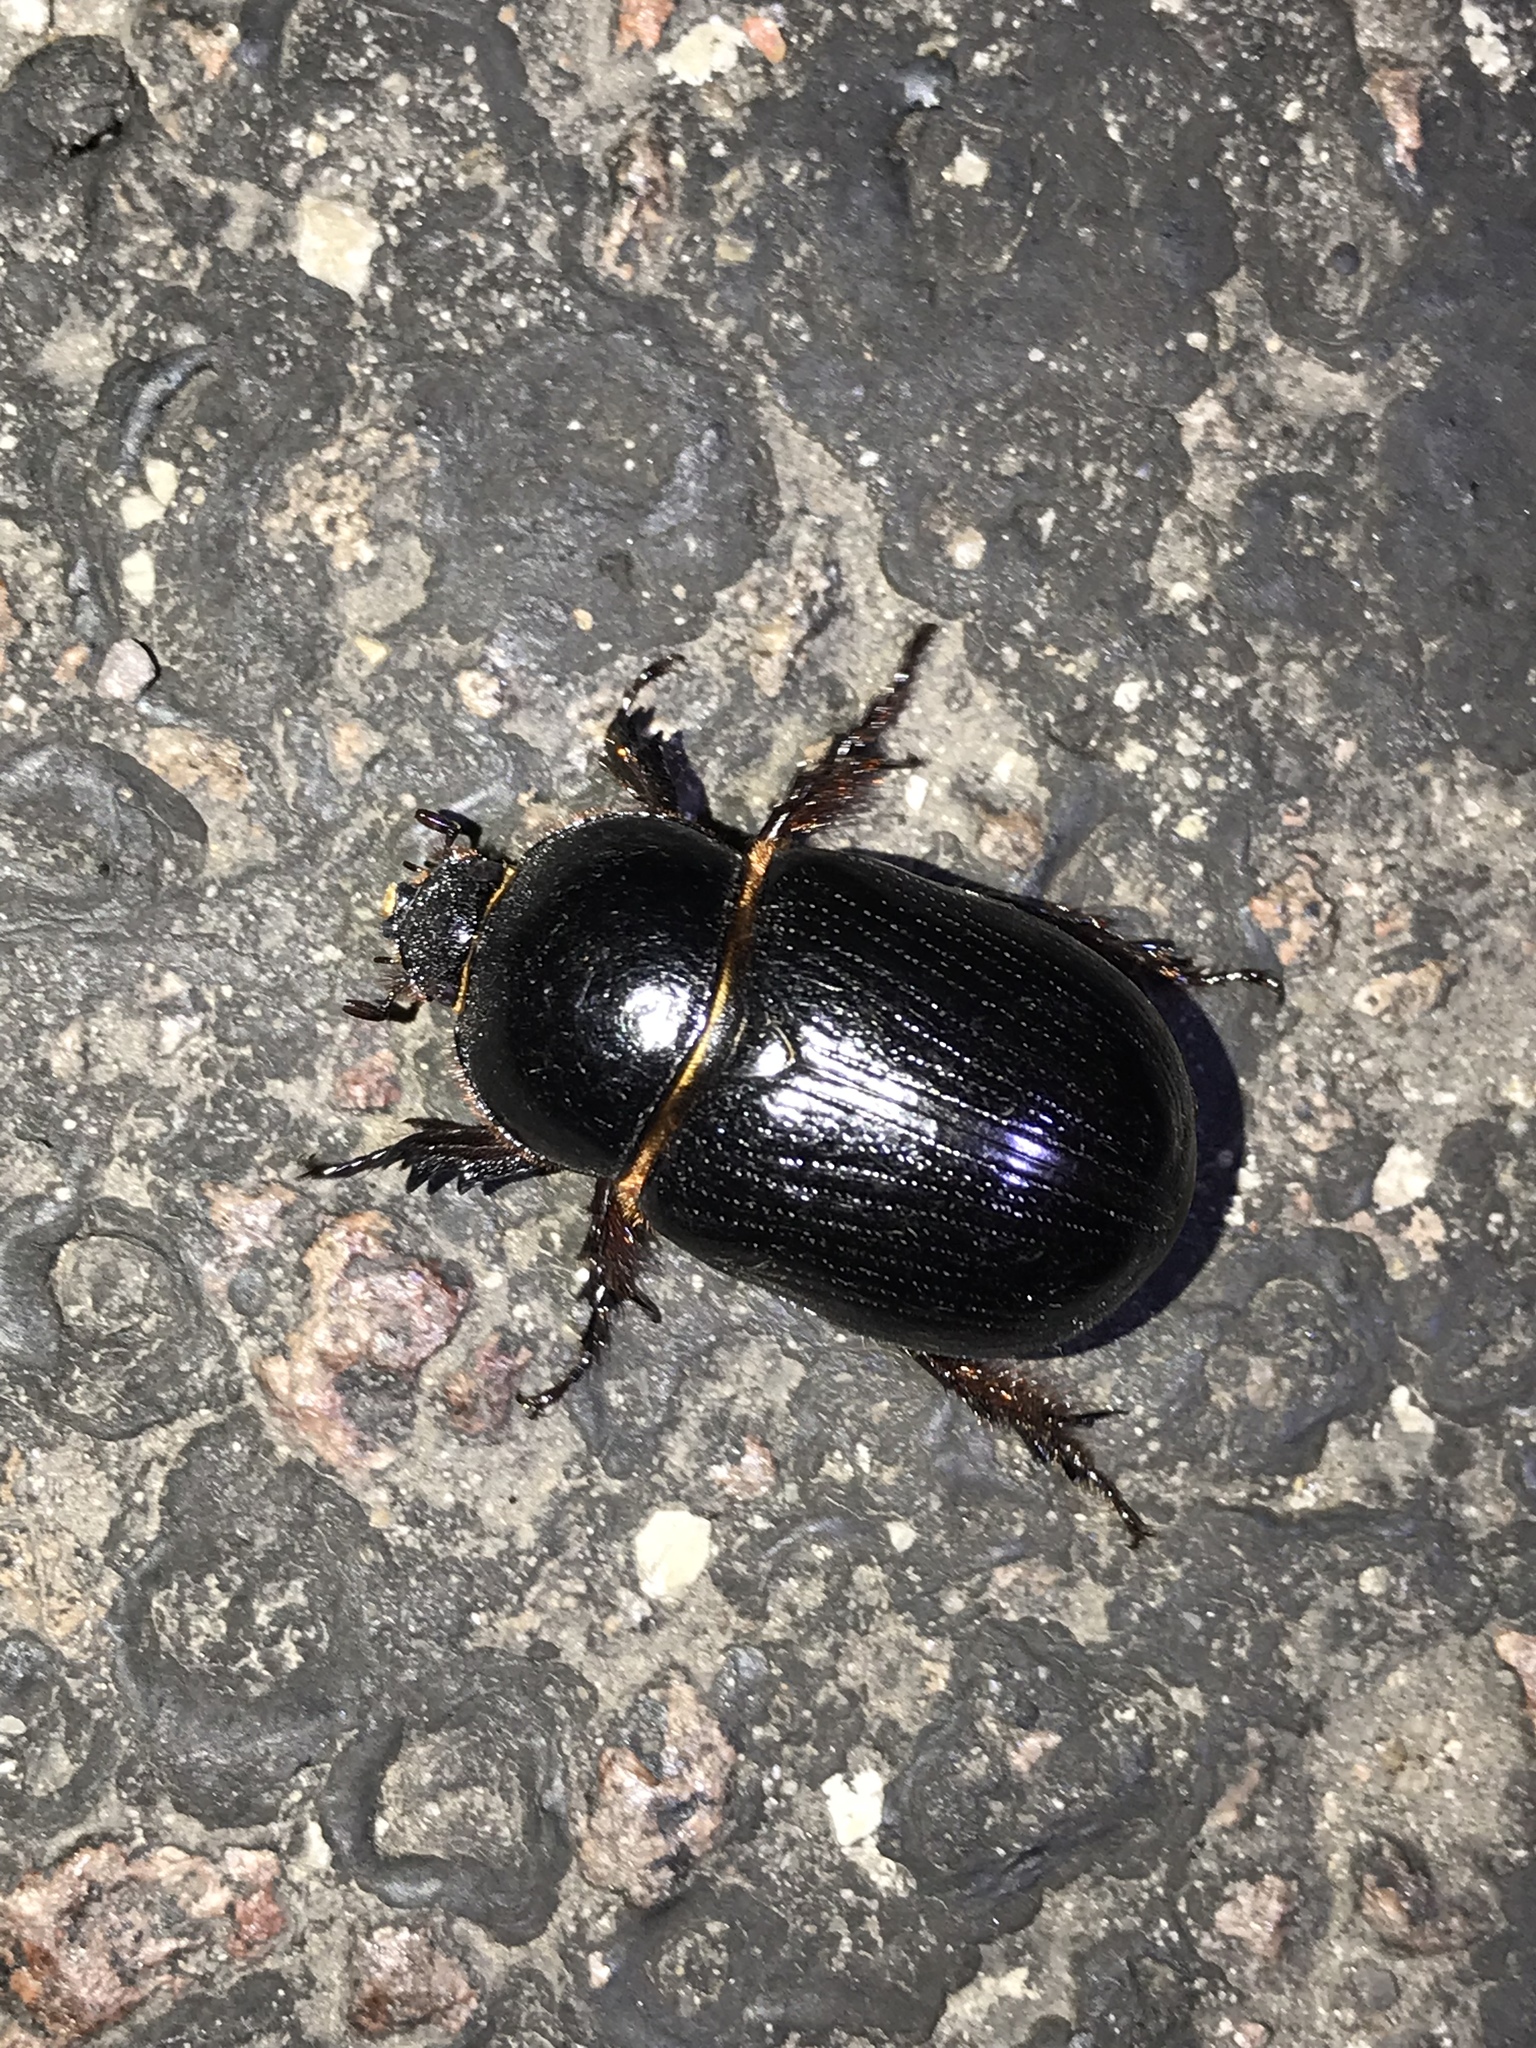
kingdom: Animalia
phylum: Arthropoda
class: Insecta
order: Coleoptera
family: Scarabaeidae
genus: Xyloryctes
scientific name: Xyloryctes thestalus
